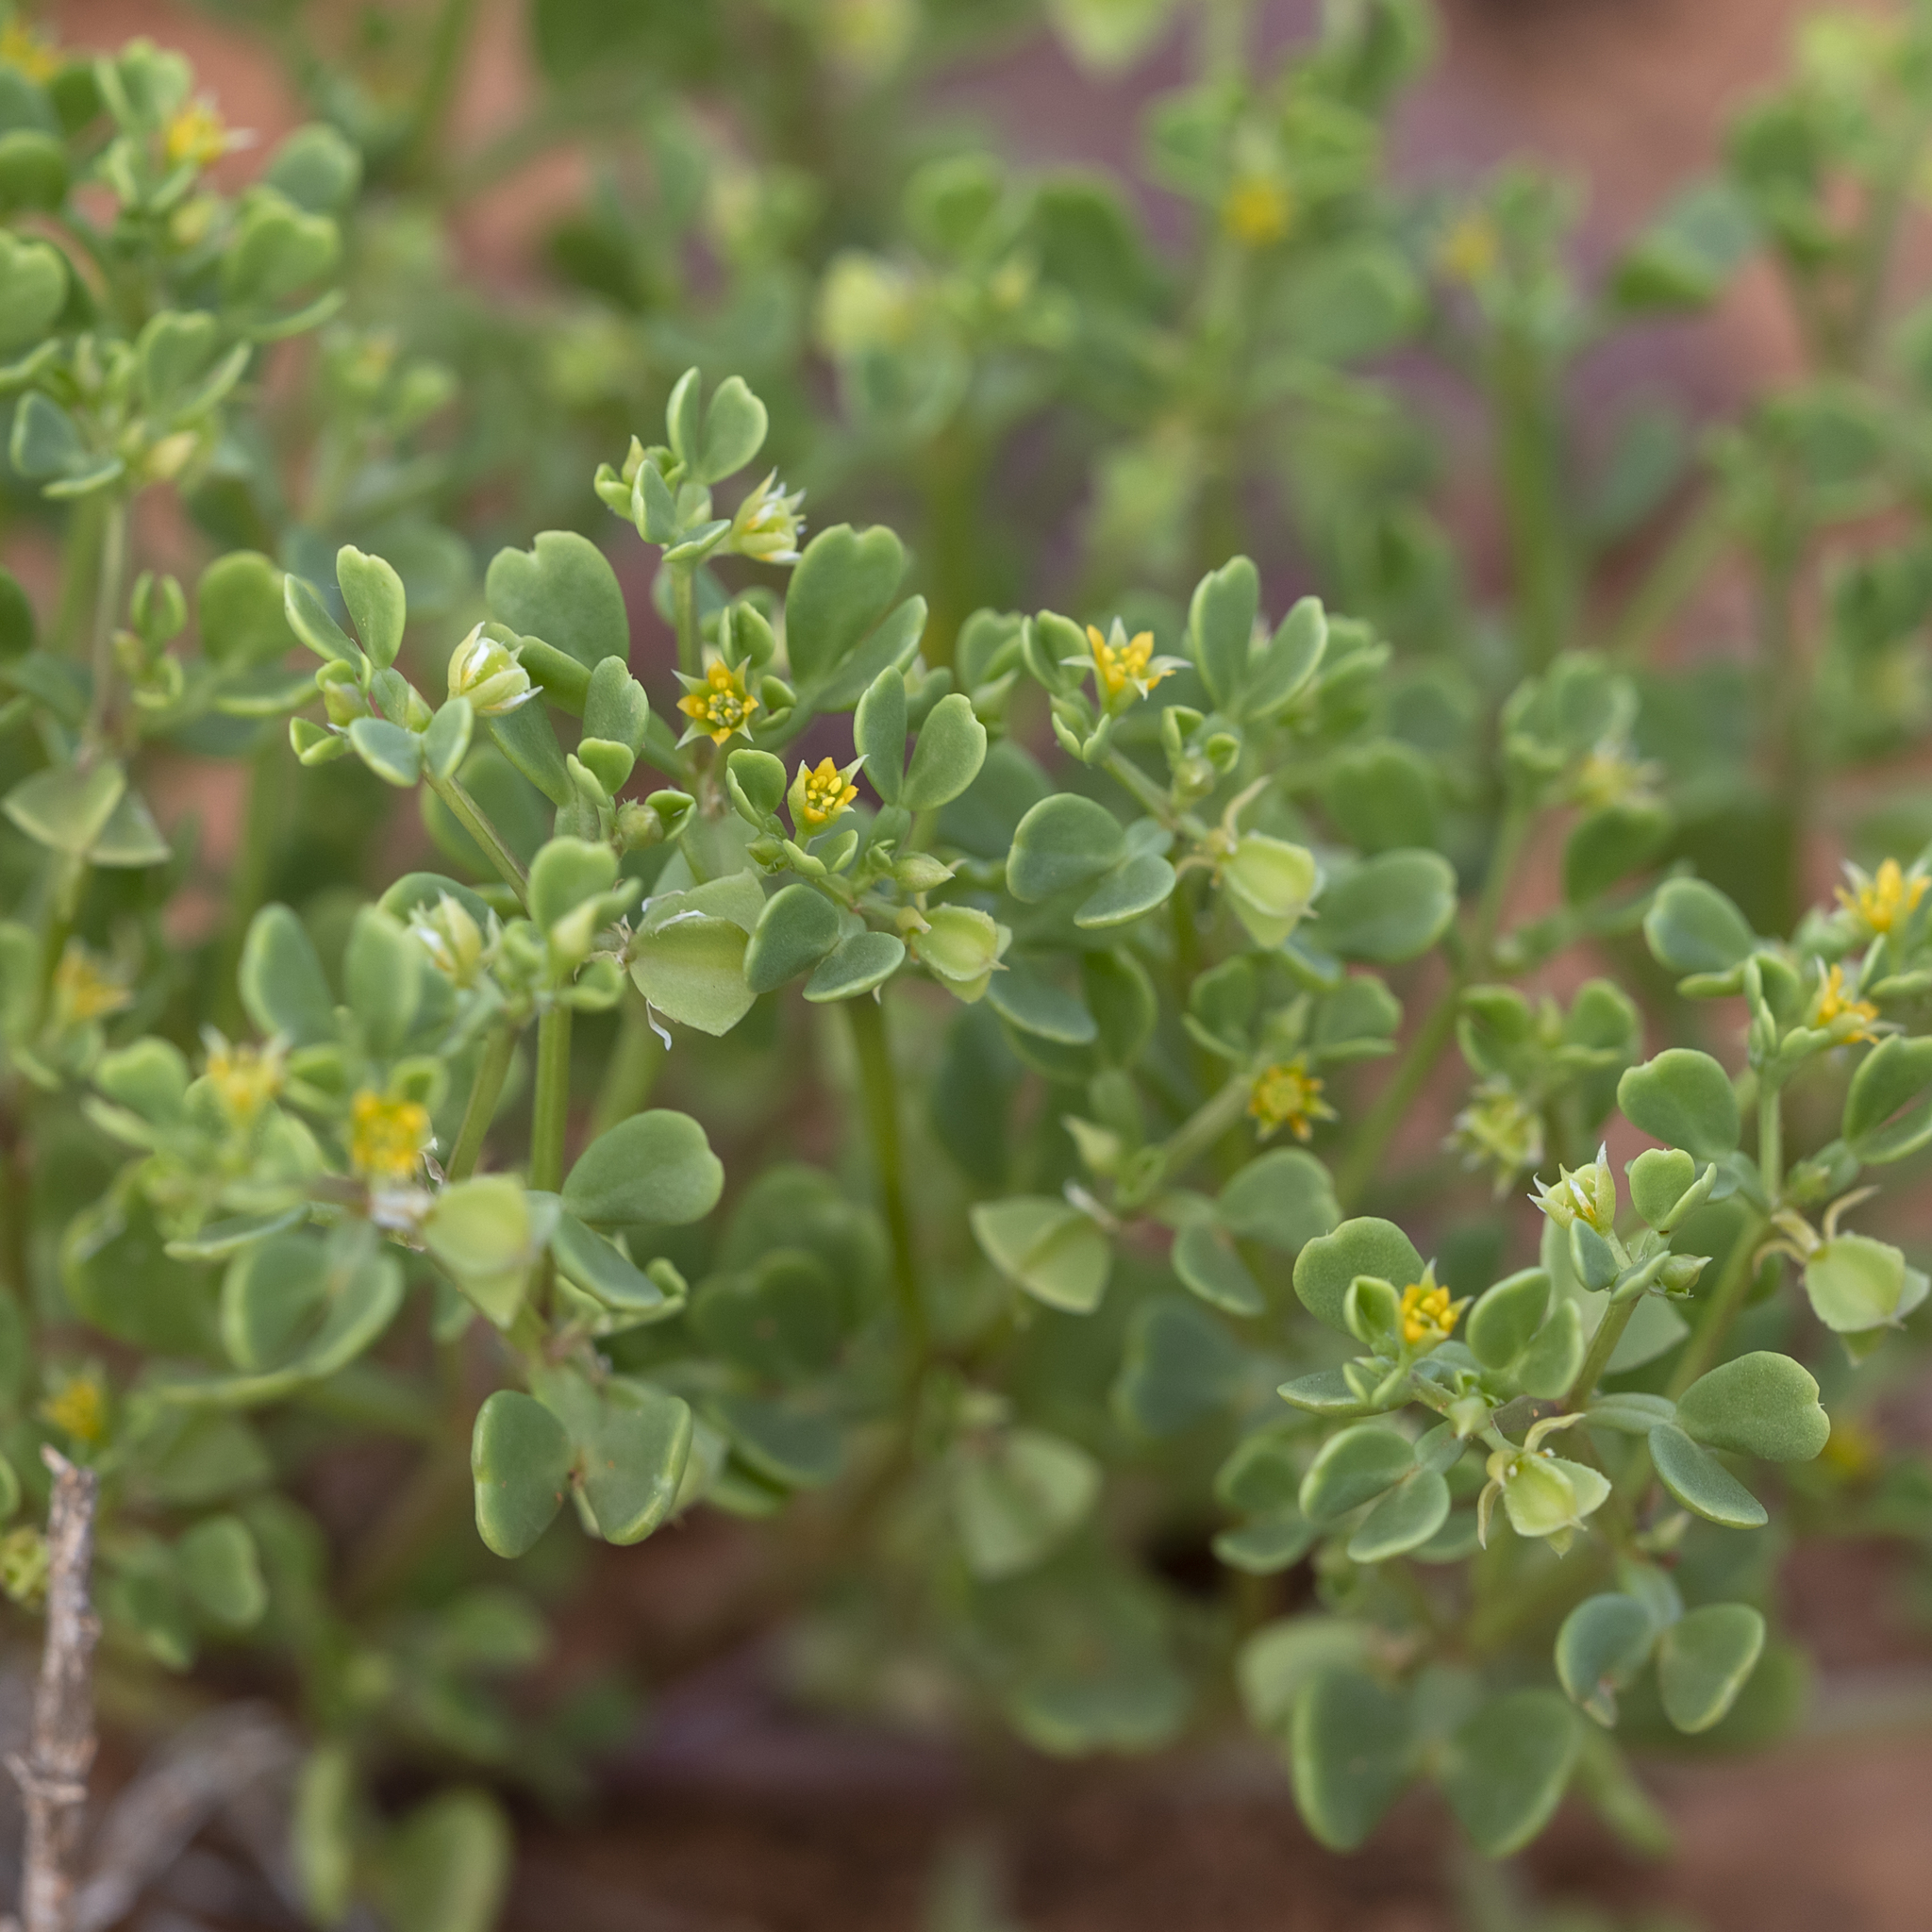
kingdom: Plantae
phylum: Tracheophyta
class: Magnoliopsida
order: Zygophyllales
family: Zygophyllaceae
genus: Roepera
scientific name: Roepera emarginata
